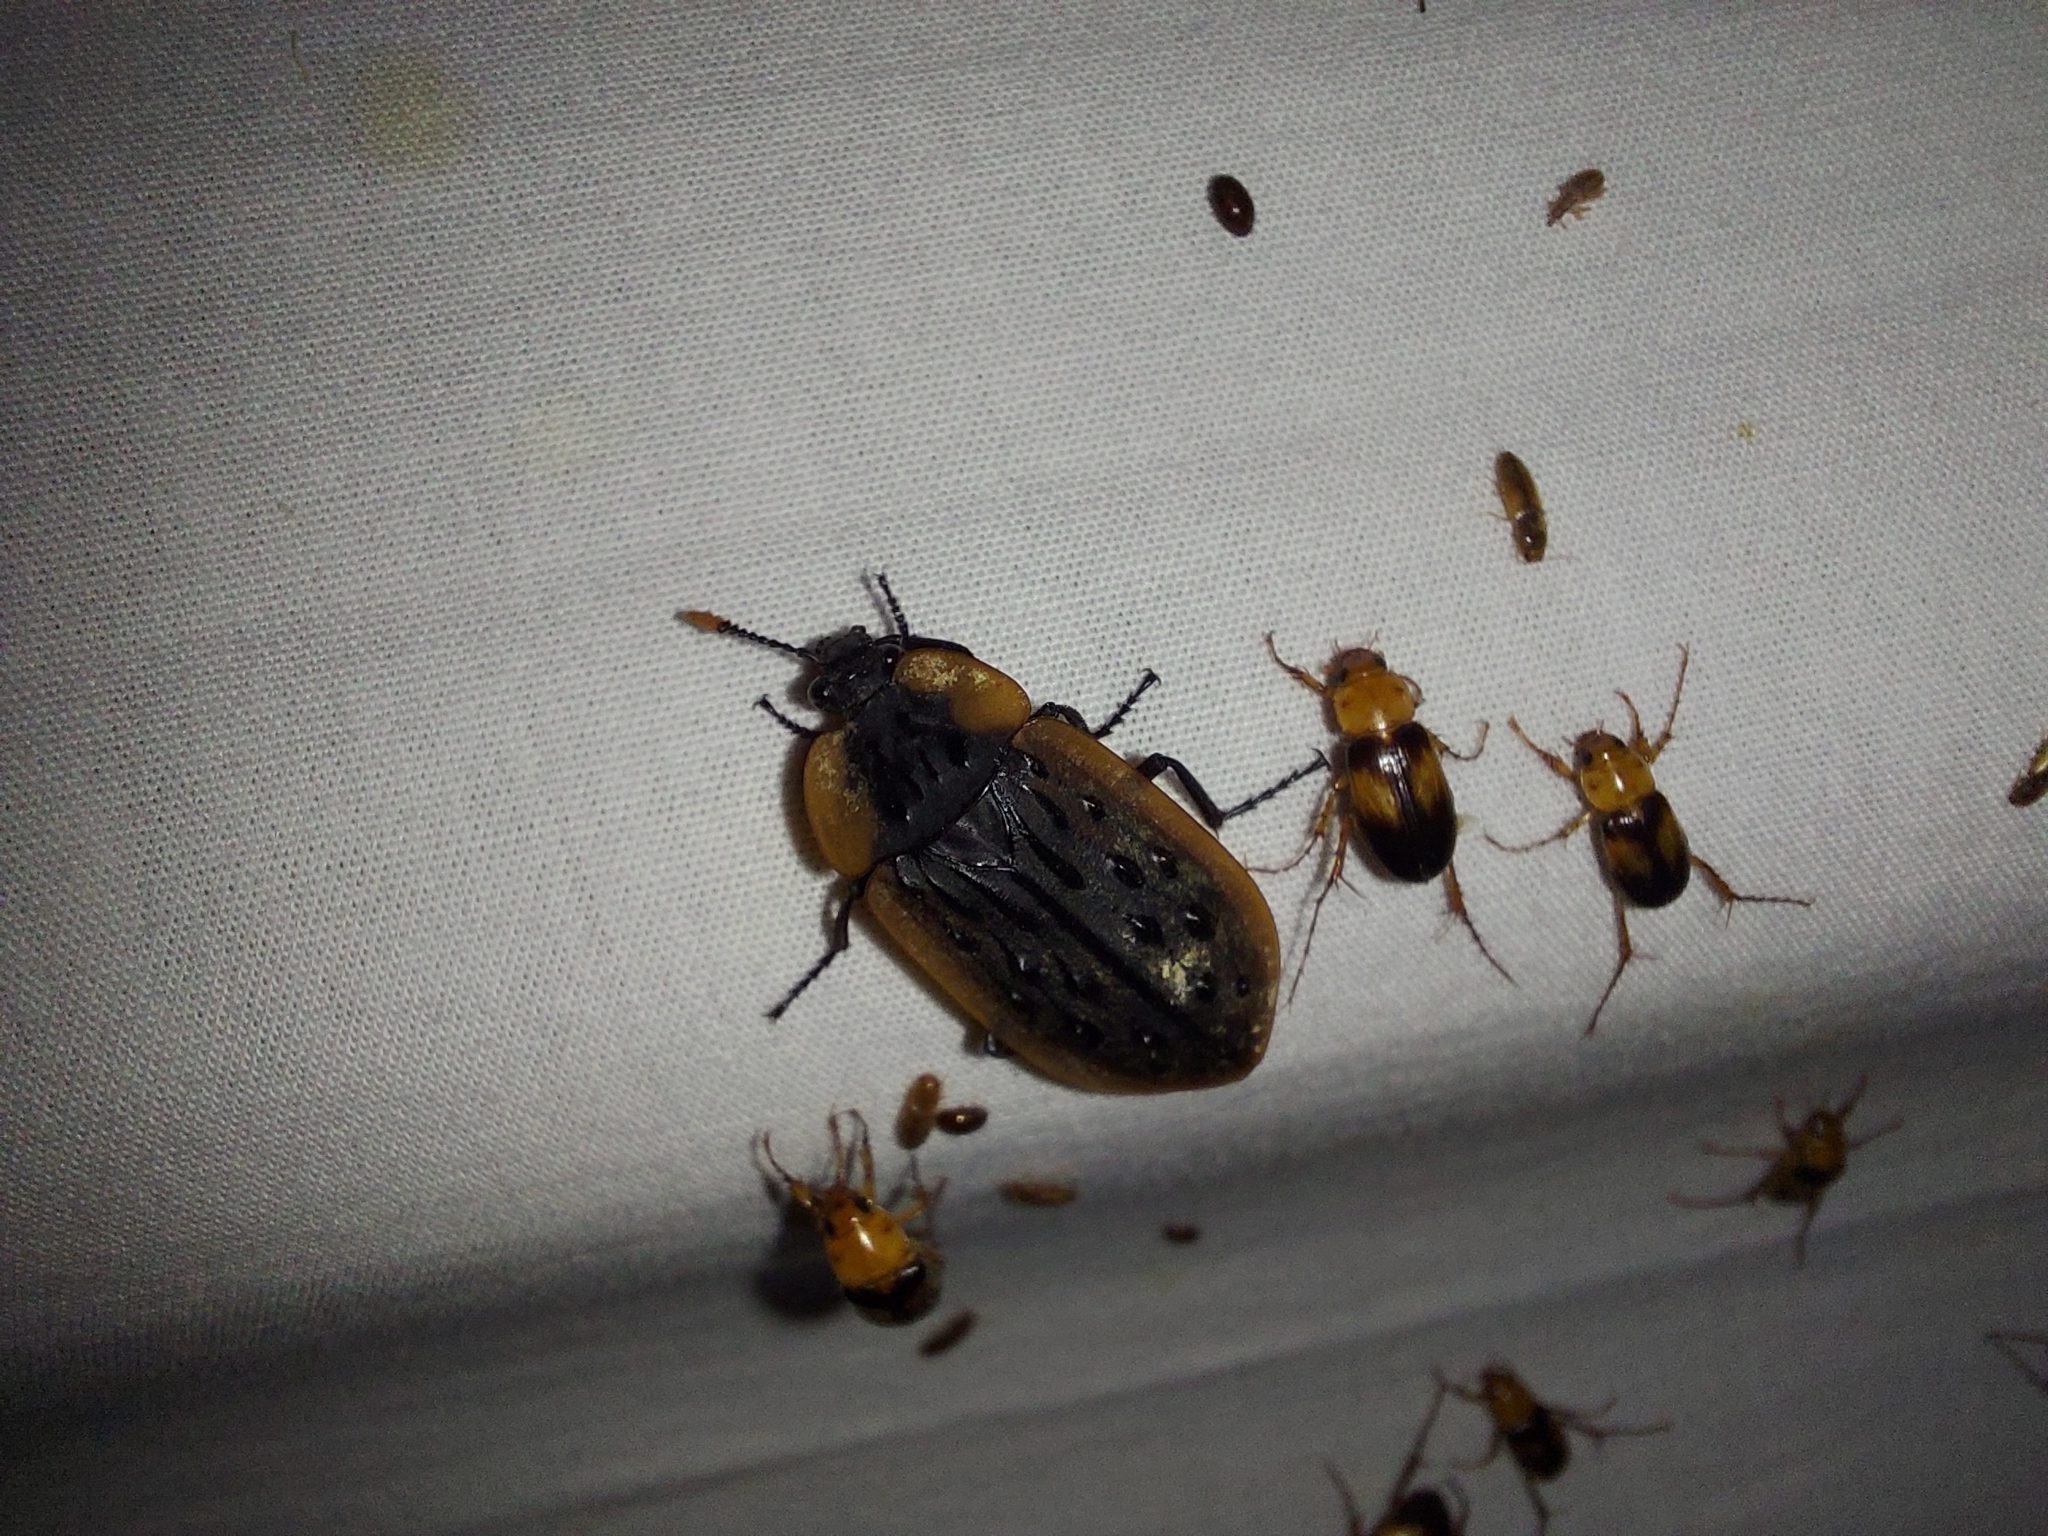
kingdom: Animalia
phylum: Arthropoda
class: Insecta
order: Coleoptera
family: Staphylinidae
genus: Ptomaphila
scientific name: Ptomaphila lacrymosa
